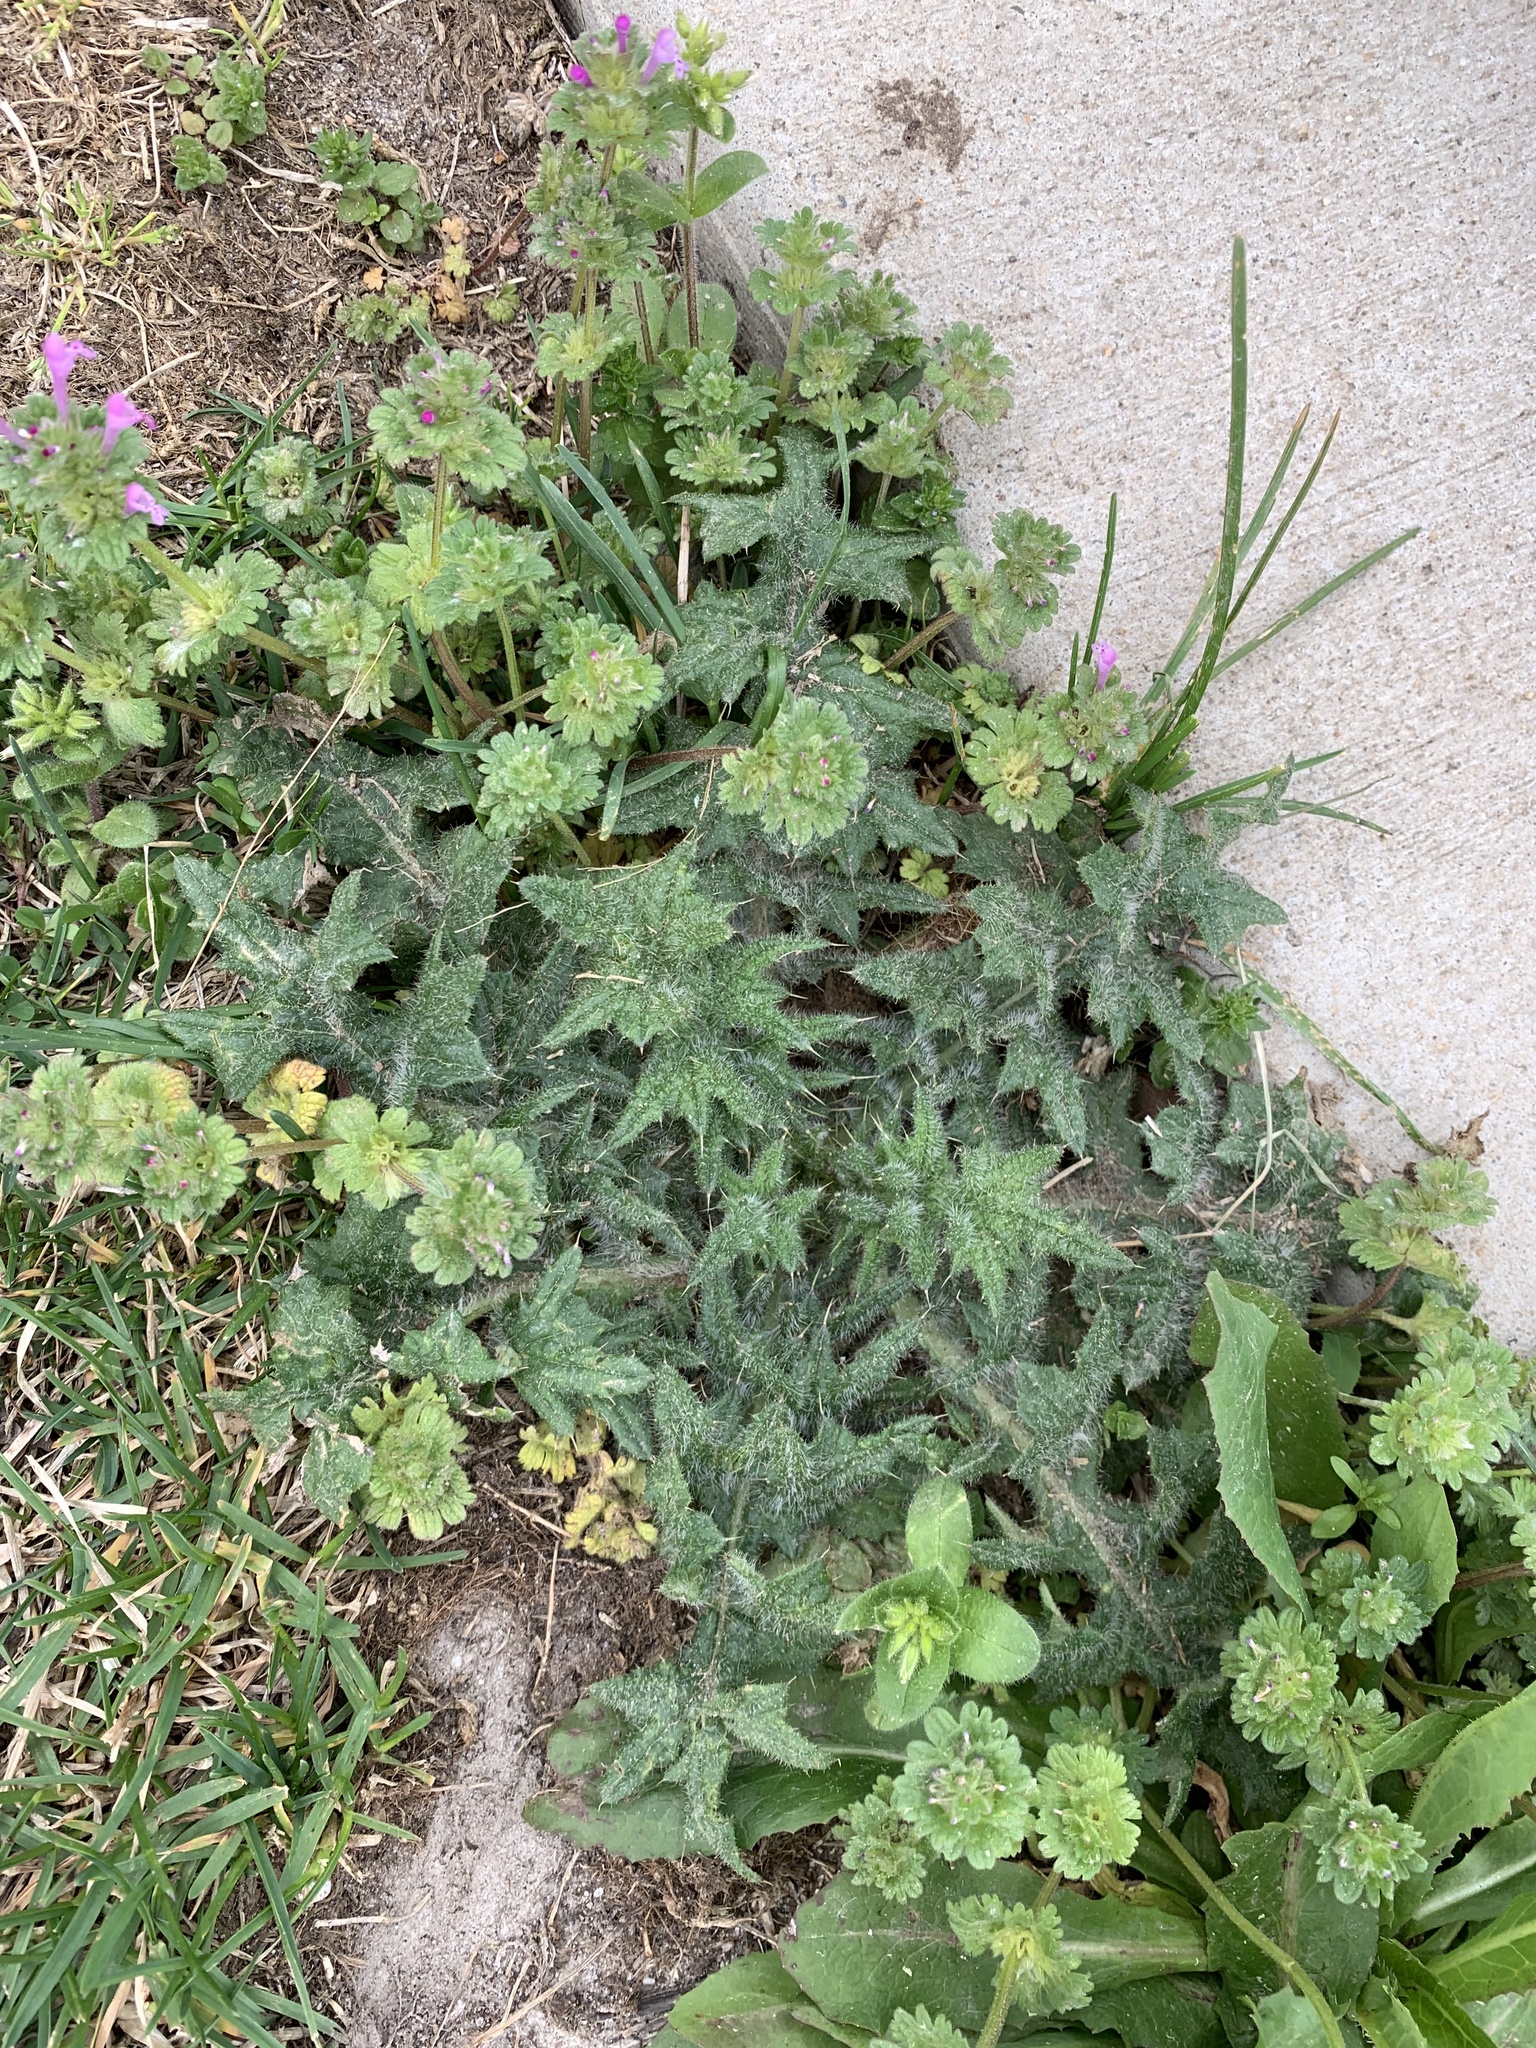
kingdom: Plantae
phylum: Tracheophyta
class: Magnoliopsida
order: Asterales
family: Asteraceae
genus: Cirsium
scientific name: Cirsium vulgare
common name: Bull thistle
